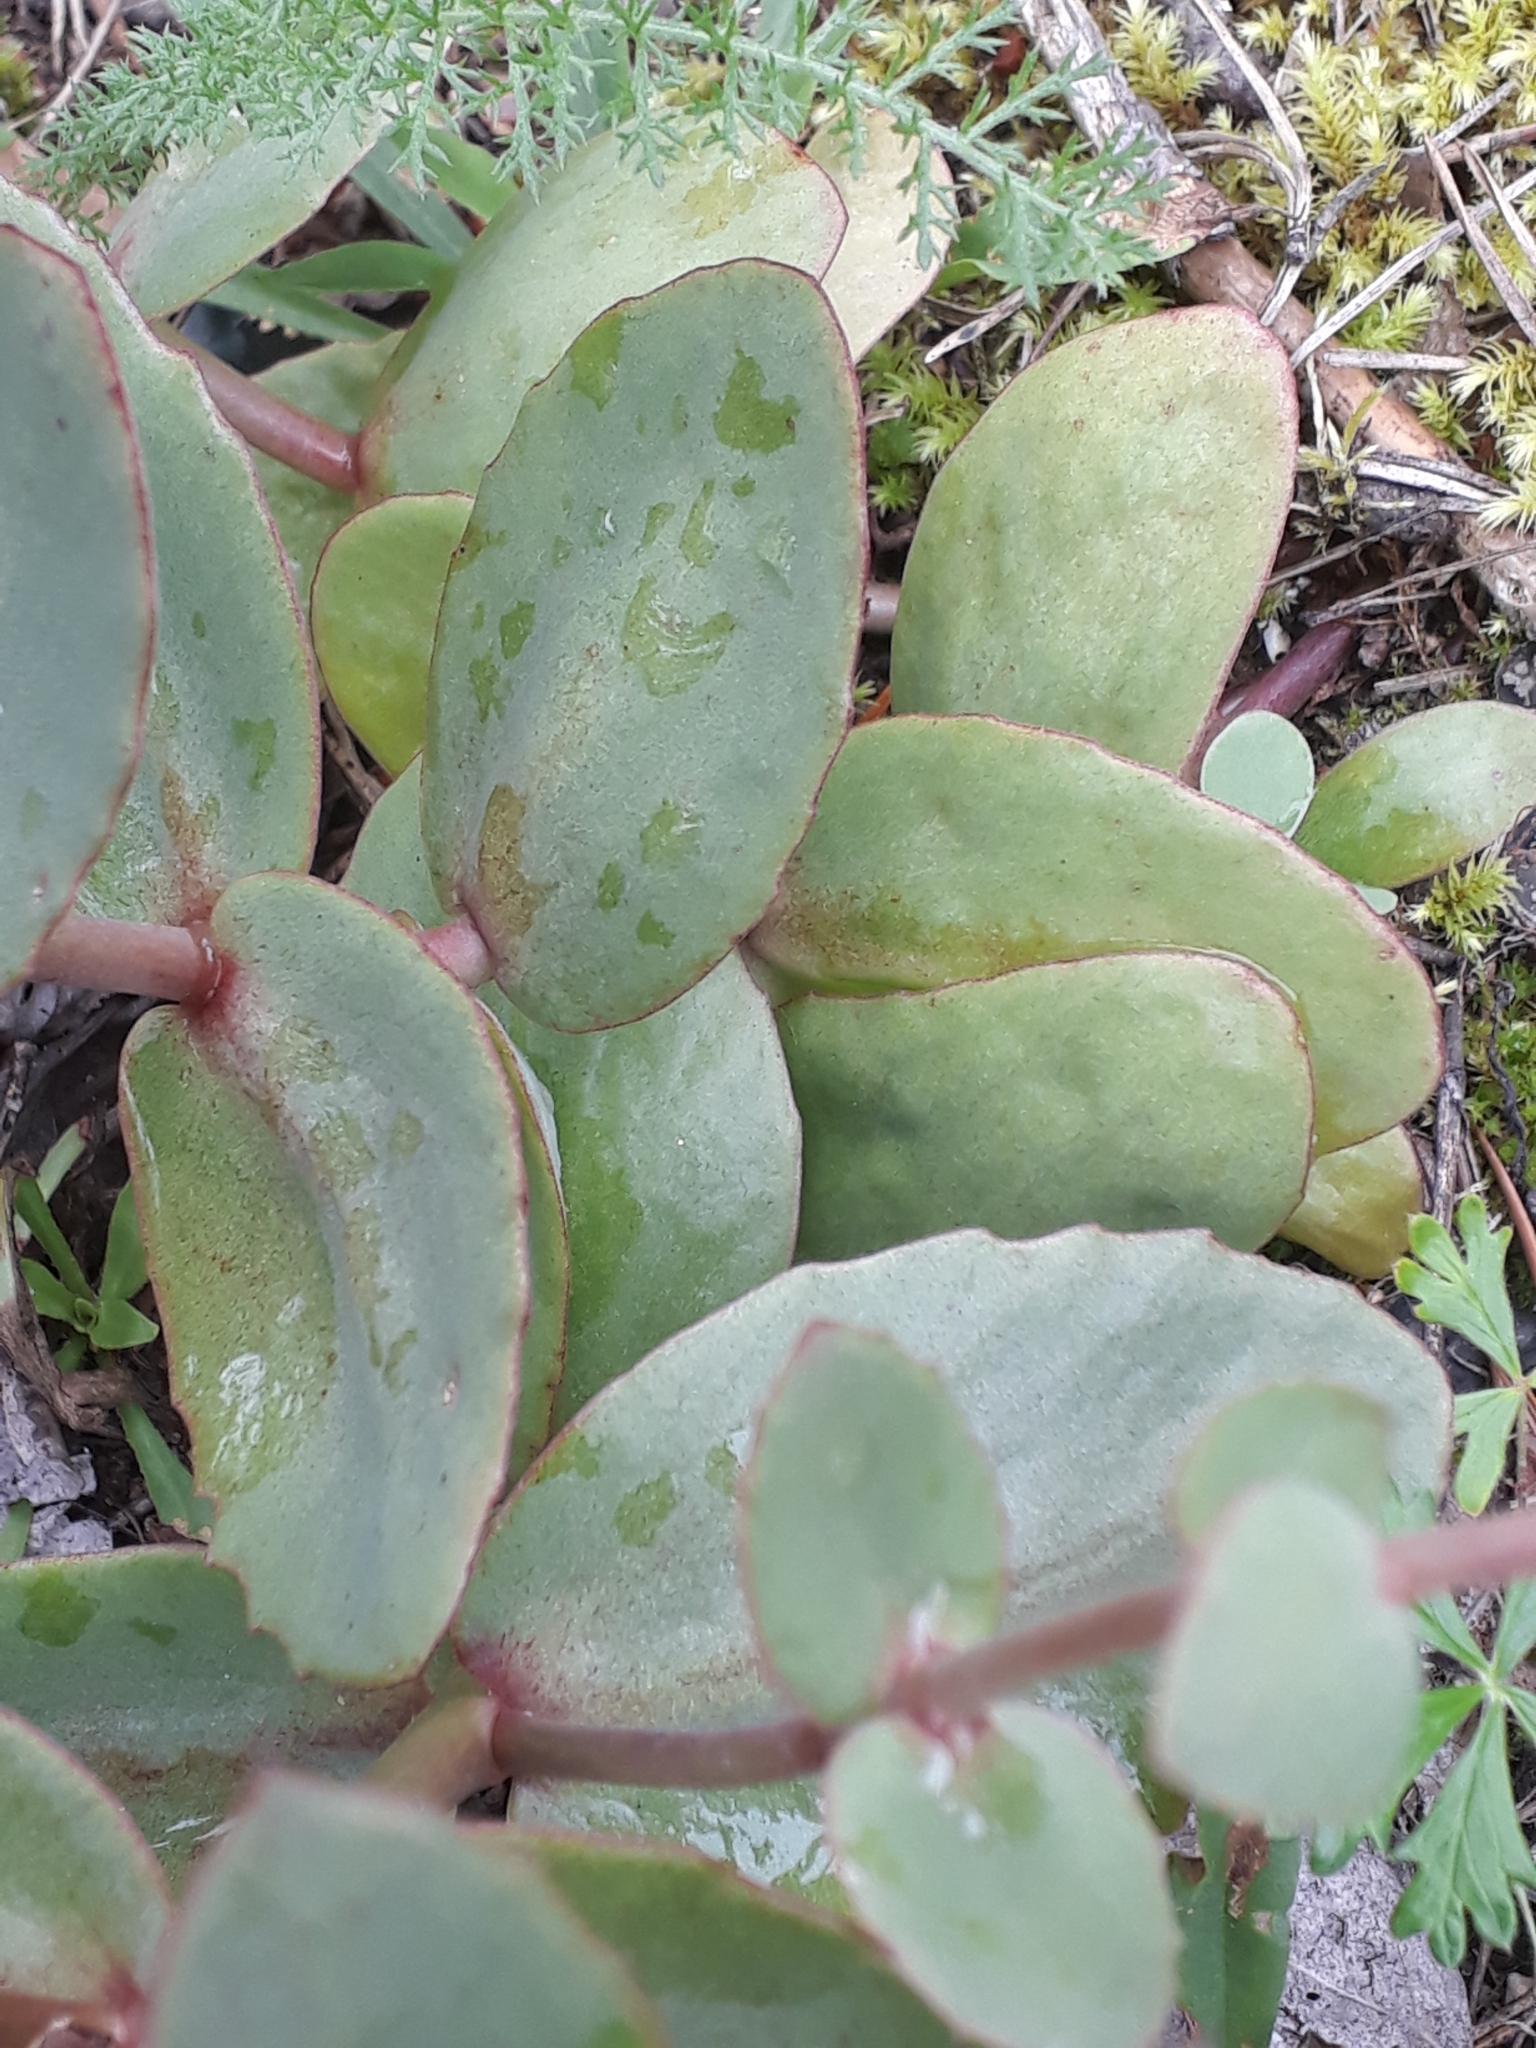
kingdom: Plantae
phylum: Tracheophyta
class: Magnoliopsida
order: Saxifragales
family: Crassulaceae
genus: Hylotelephium
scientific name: Hylotelephium maximum
